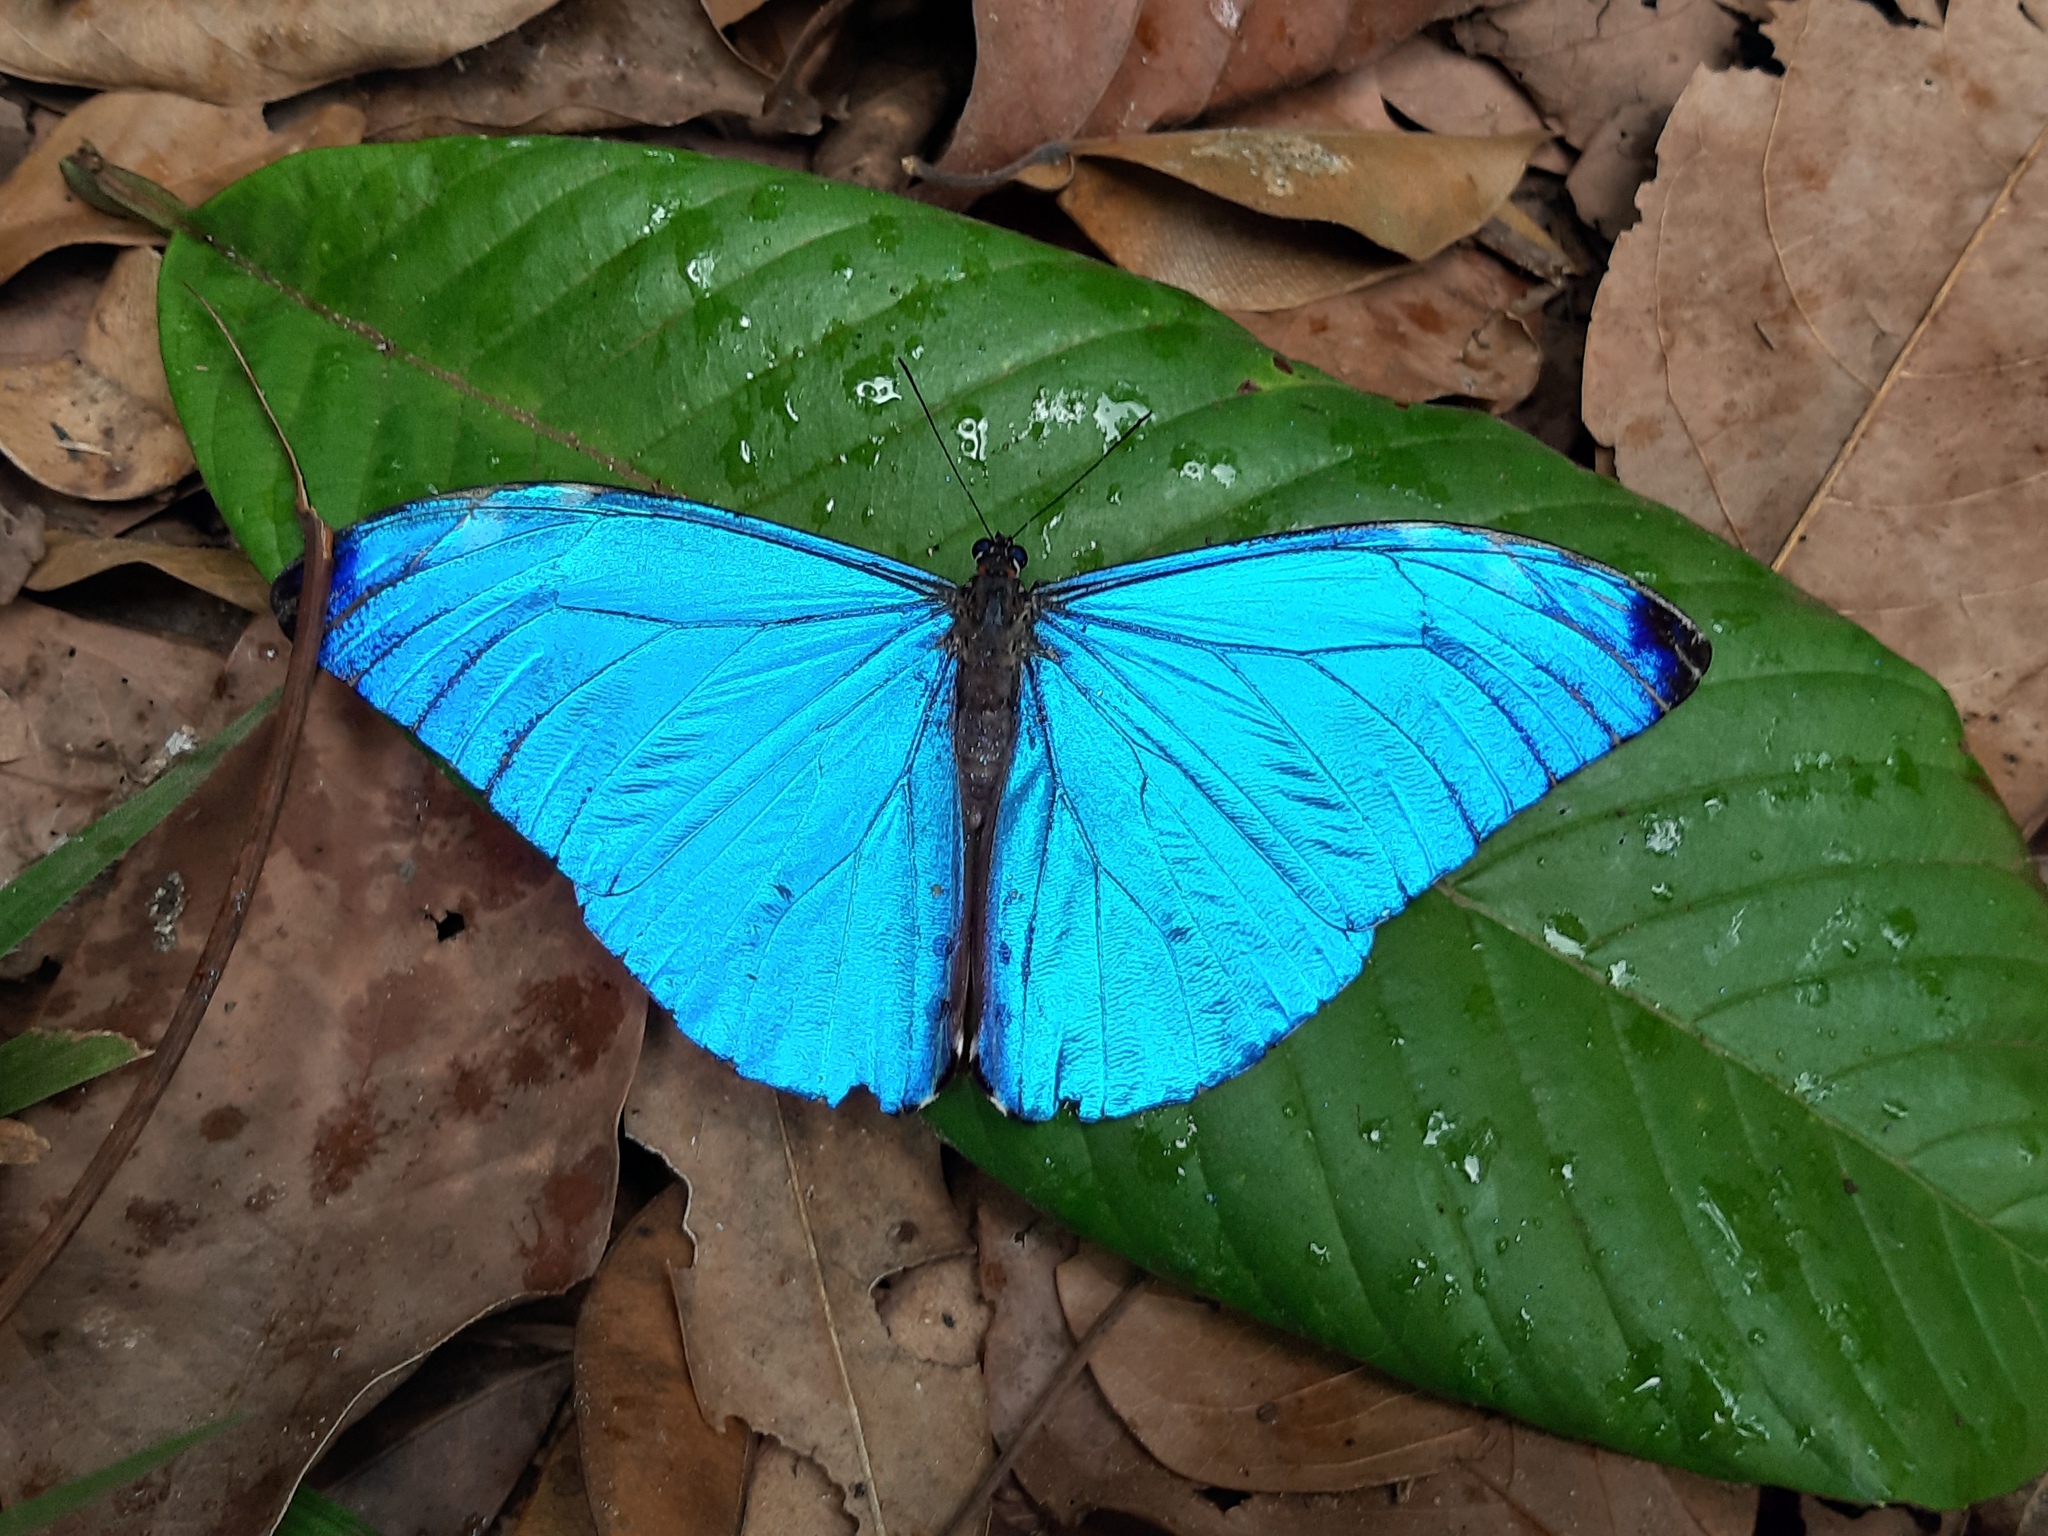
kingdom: Animalia
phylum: Arthropoda
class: Insecta
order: Lepidoptera
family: Nymphalidae
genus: Morpho
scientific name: Morpho marcus
